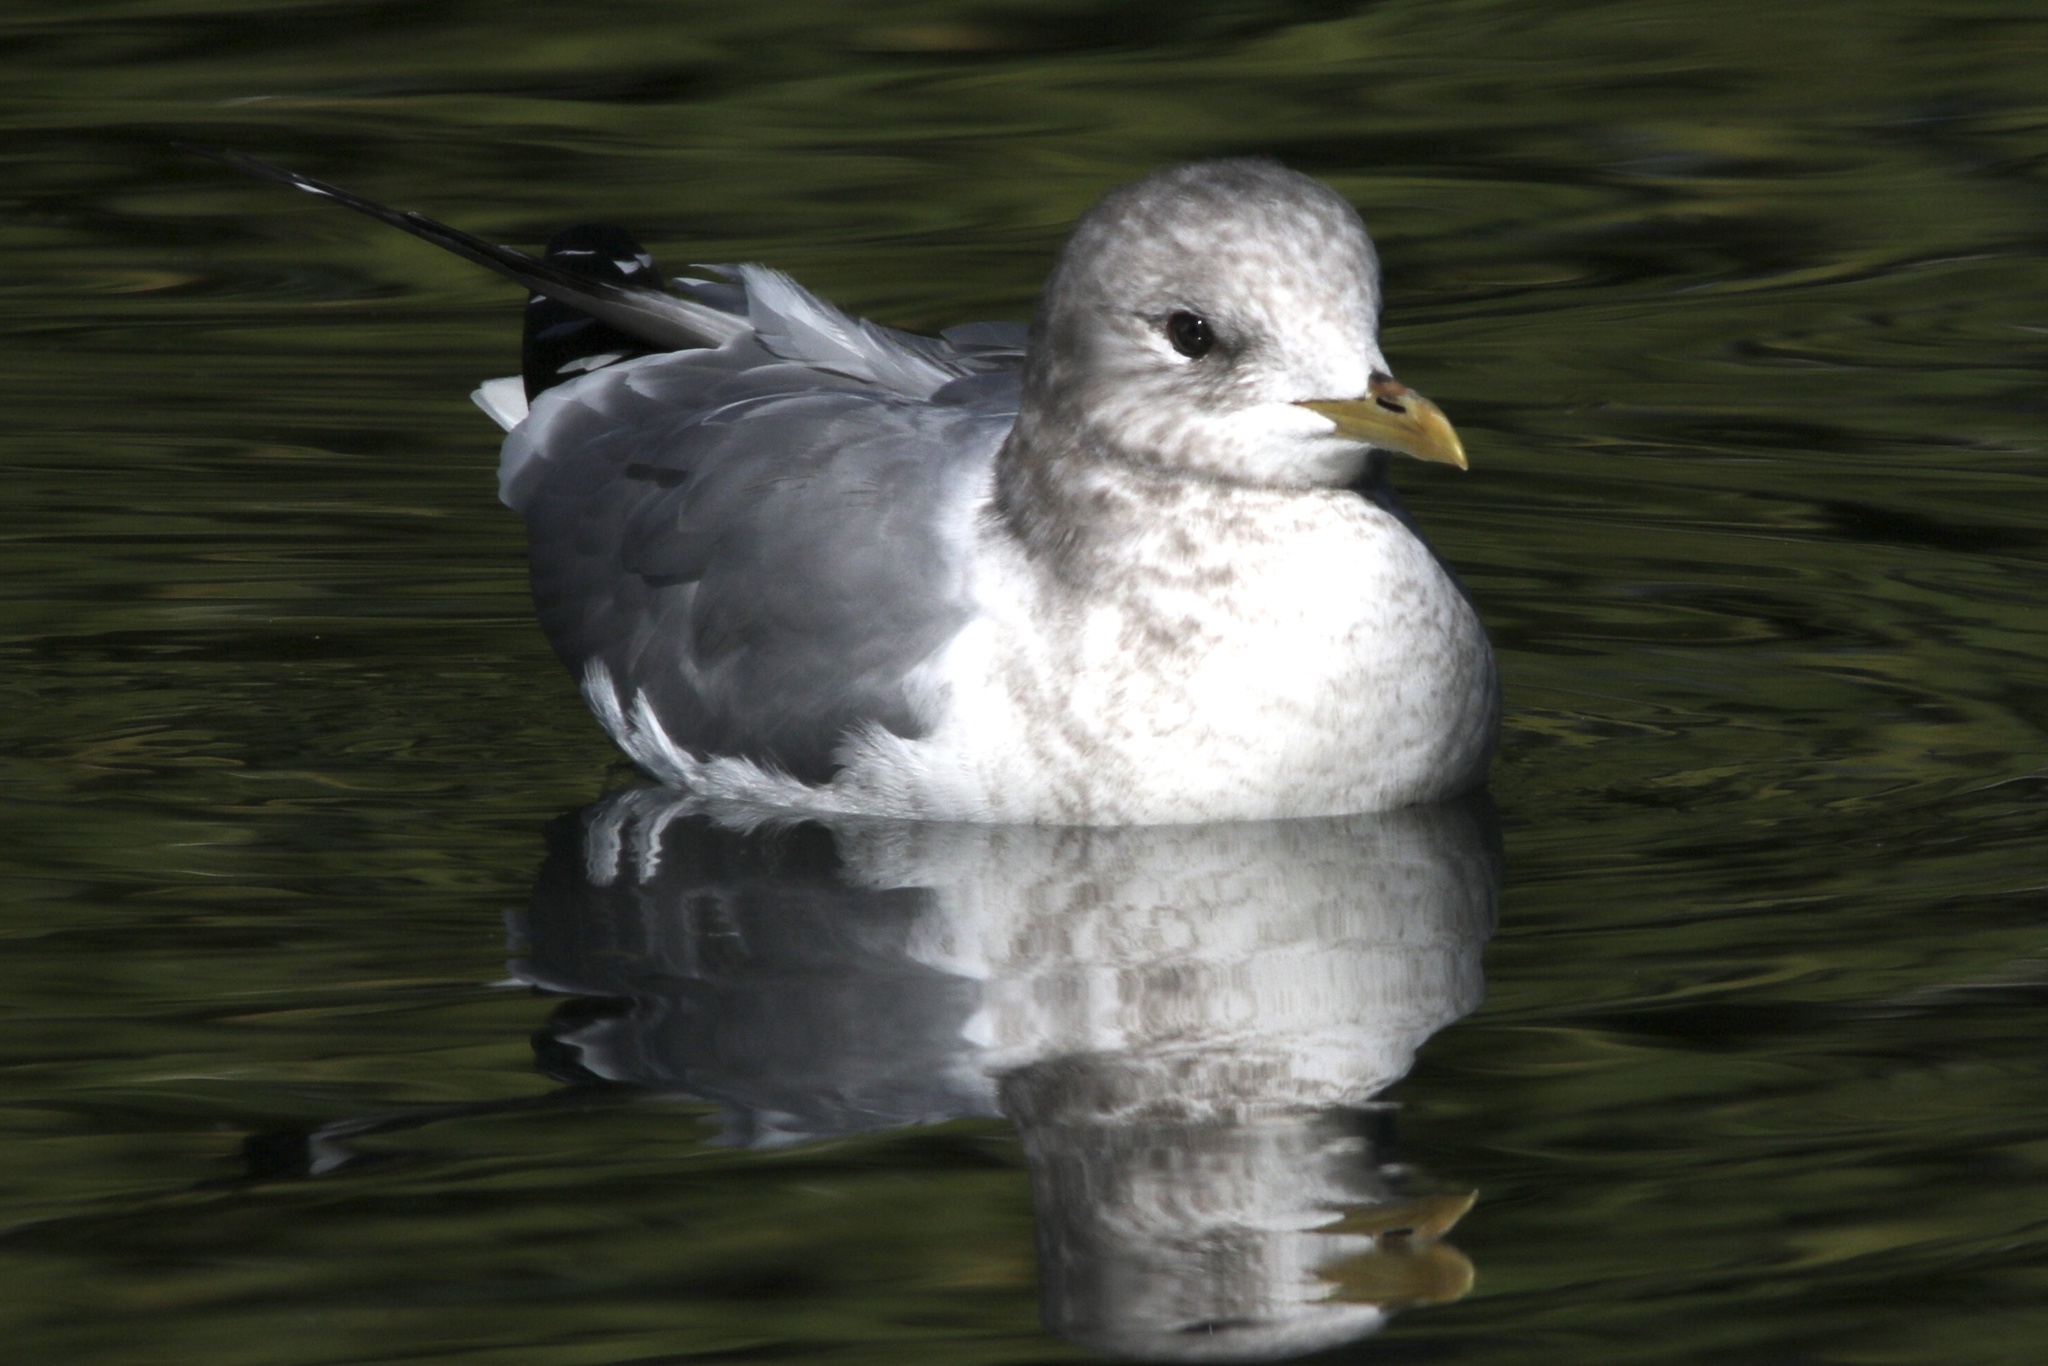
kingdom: Animalia
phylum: Chordata
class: Aves
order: Charadriiformes
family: Laridae
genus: Larus
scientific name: Larus brachyrhynchus
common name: Short-billed gull
